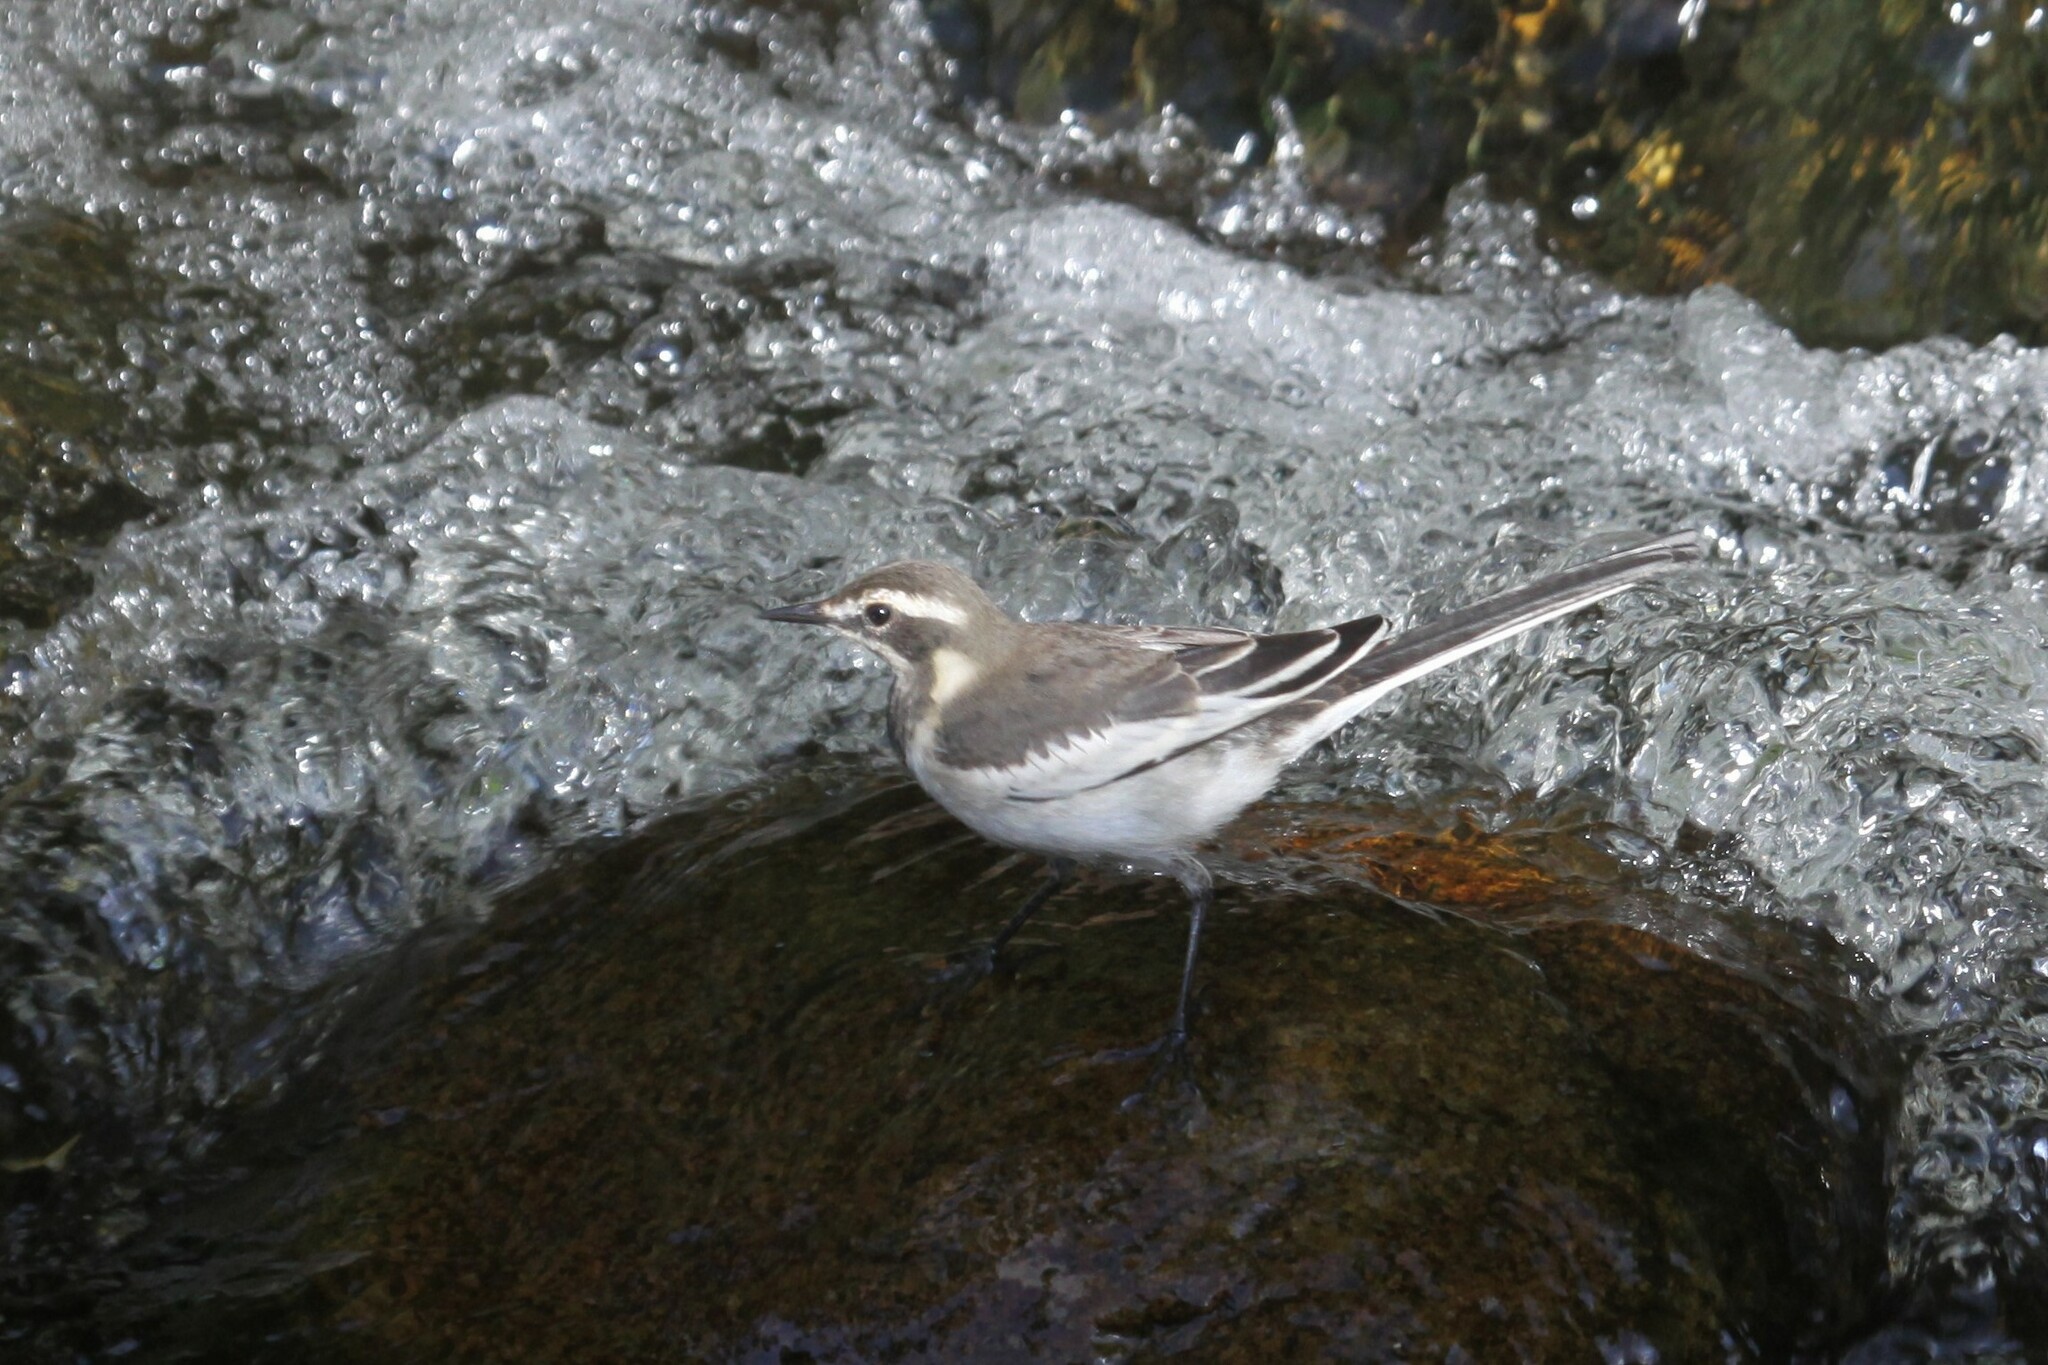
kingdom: Animalia
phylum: Chordata
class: Aves
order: Passeriformes
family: Motacillidae
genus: Motacilla
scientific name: Motacilla aguimp
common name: African pied wagtail
